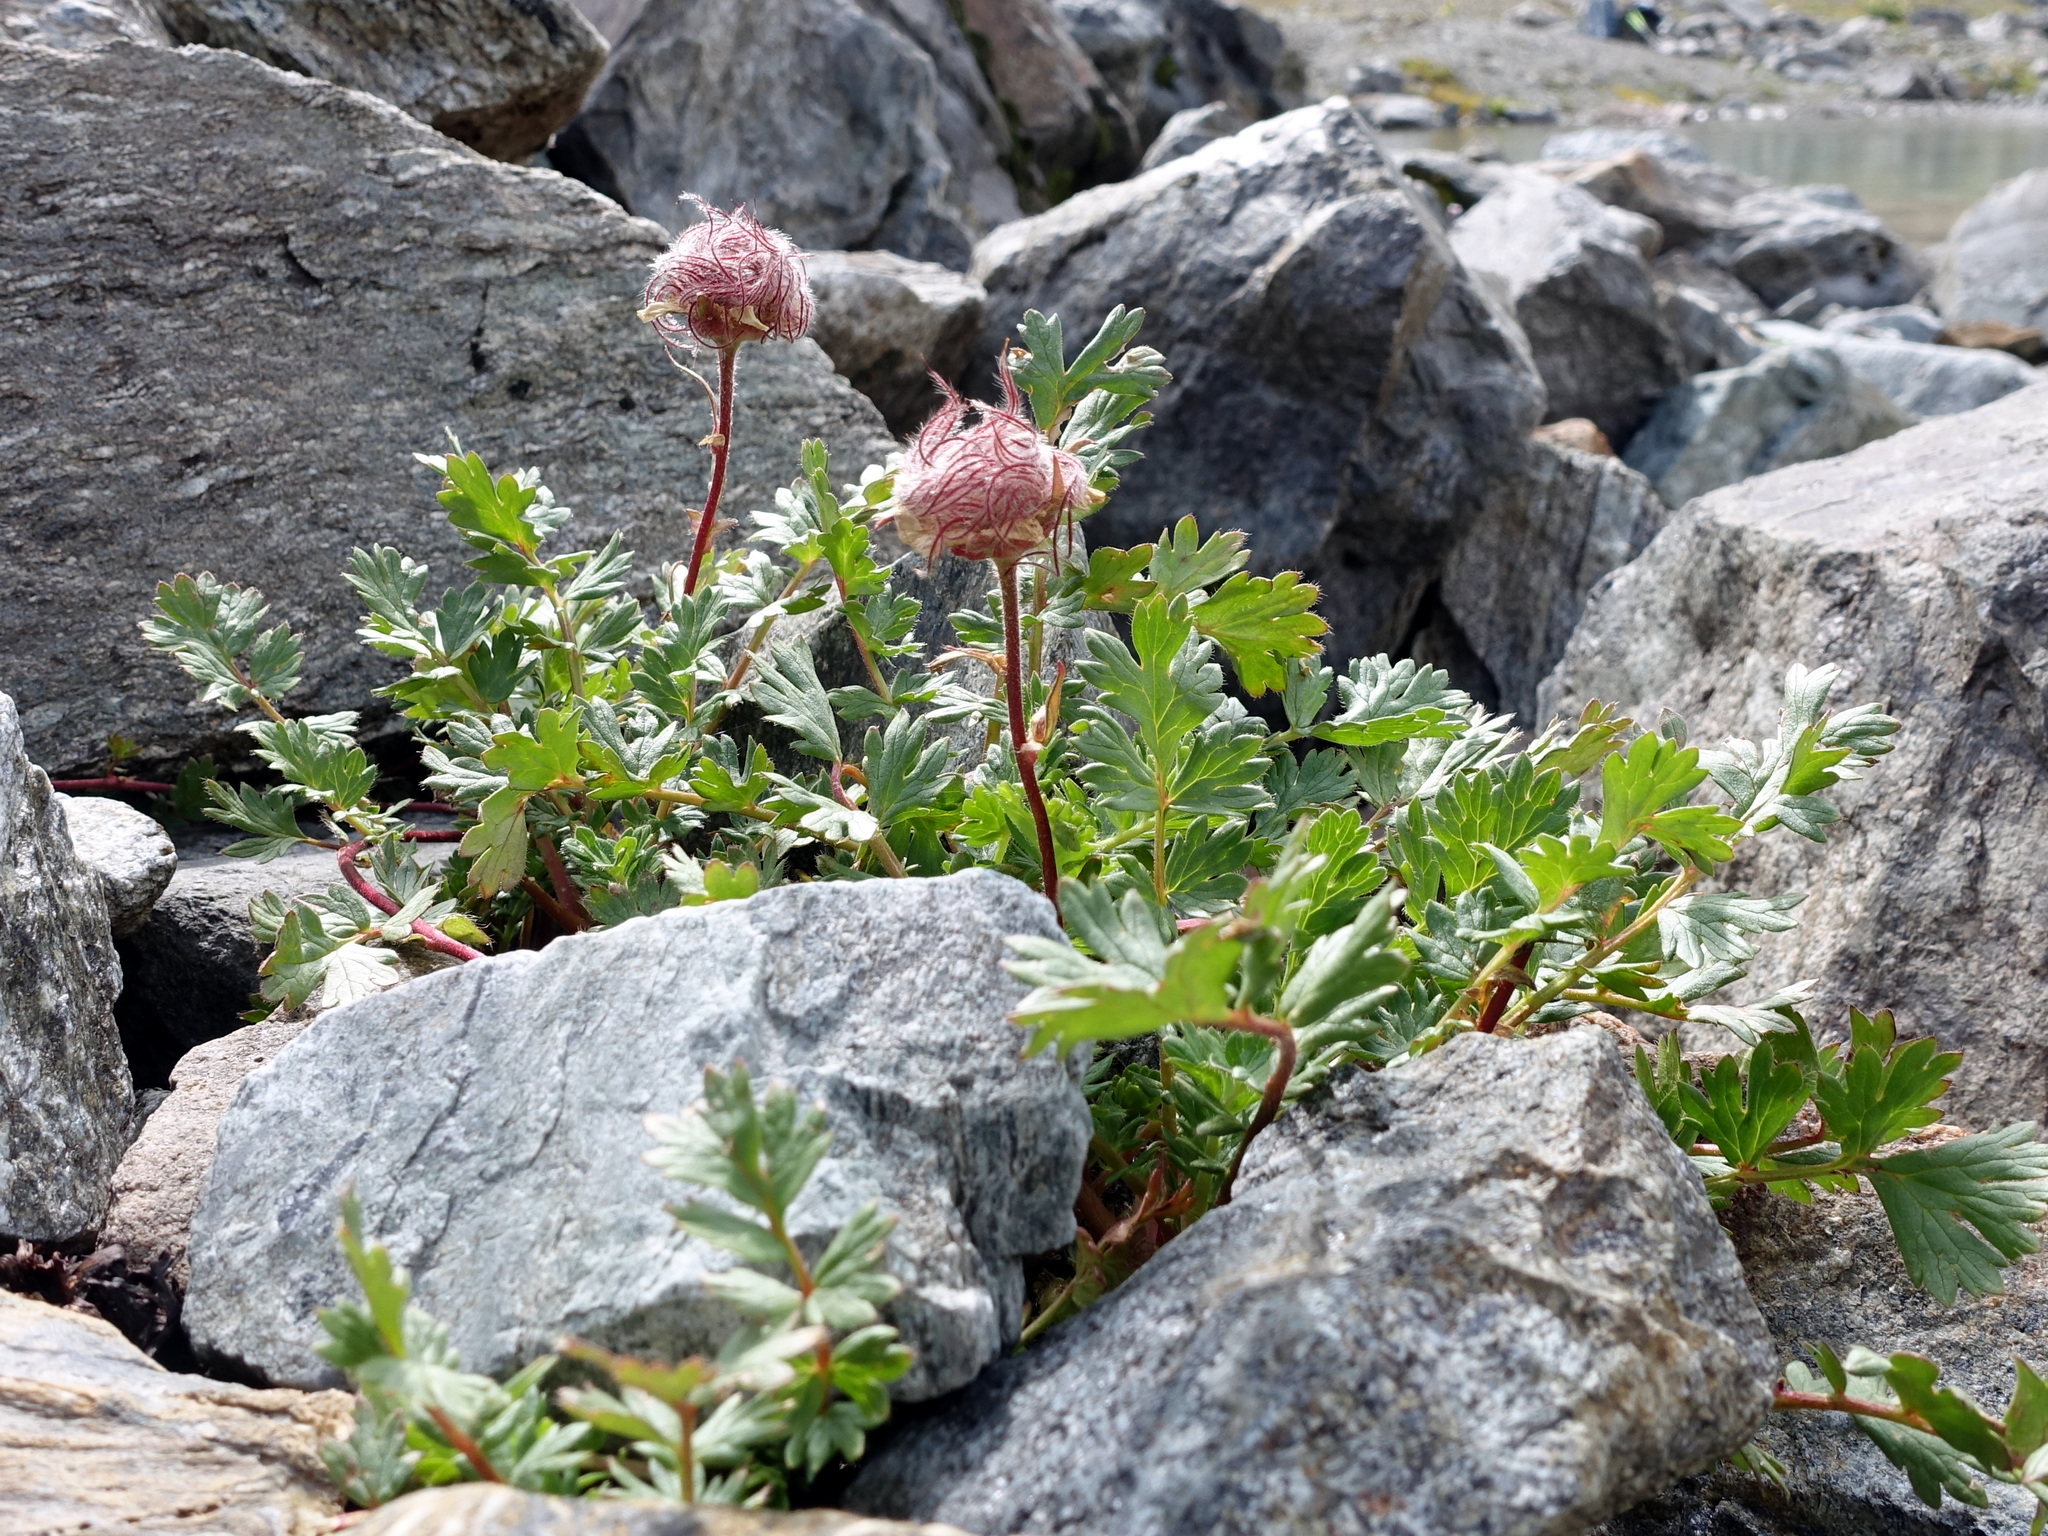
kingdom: Plantae
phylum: Tracheophyta
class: Magnoliopsida
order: Rosales
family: Rosaceae
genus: Geum
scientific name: Geum reptans
